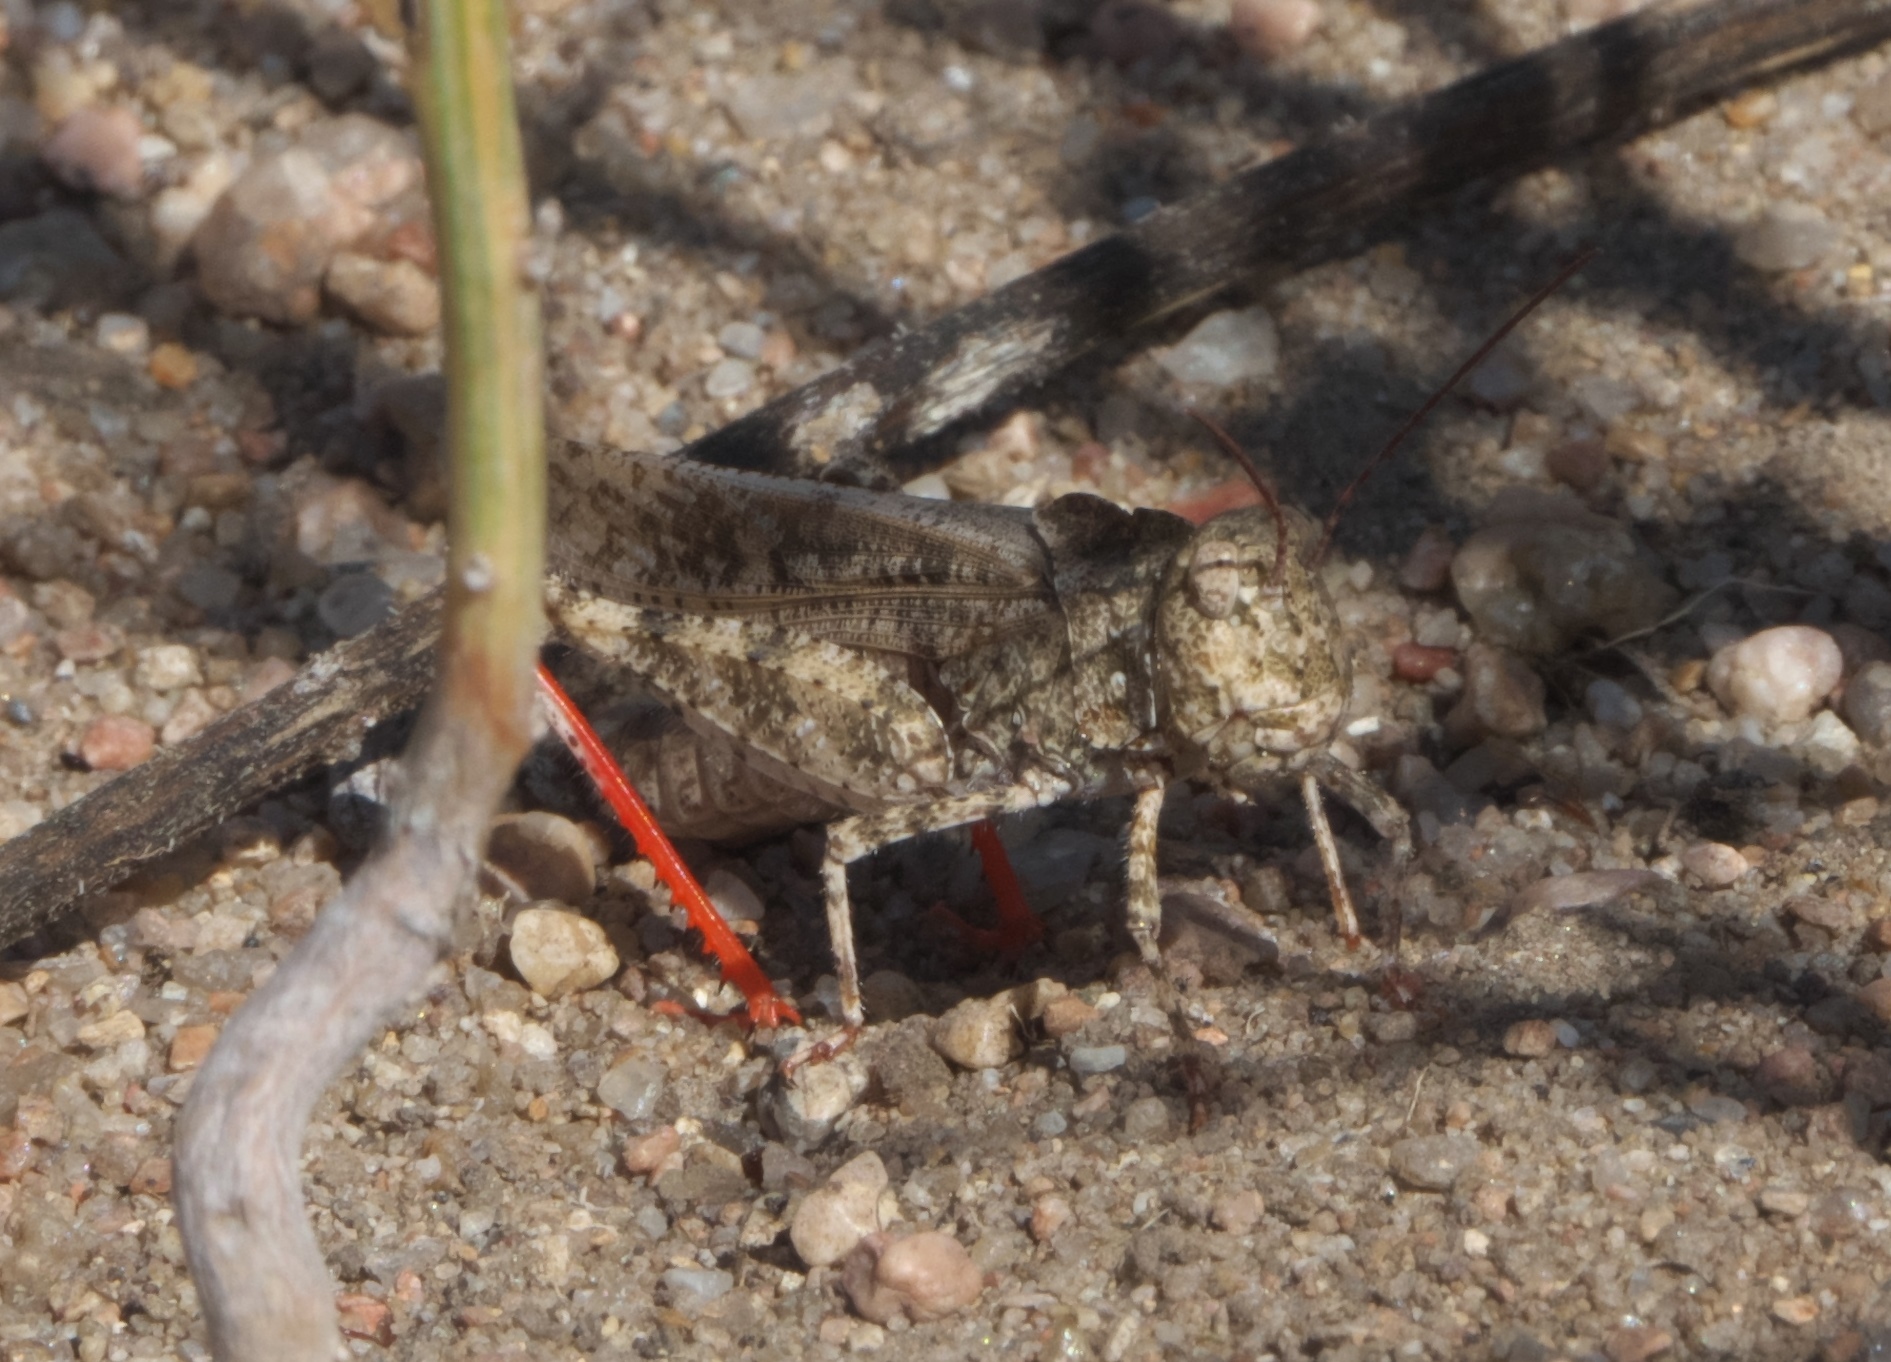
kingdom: Animalia
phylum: Arthropoda
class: Insecta
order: Orthoptera
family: Acrididae
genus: Spharagemon
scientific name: Spharagemon collare
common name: Mottled sand grasshopper
